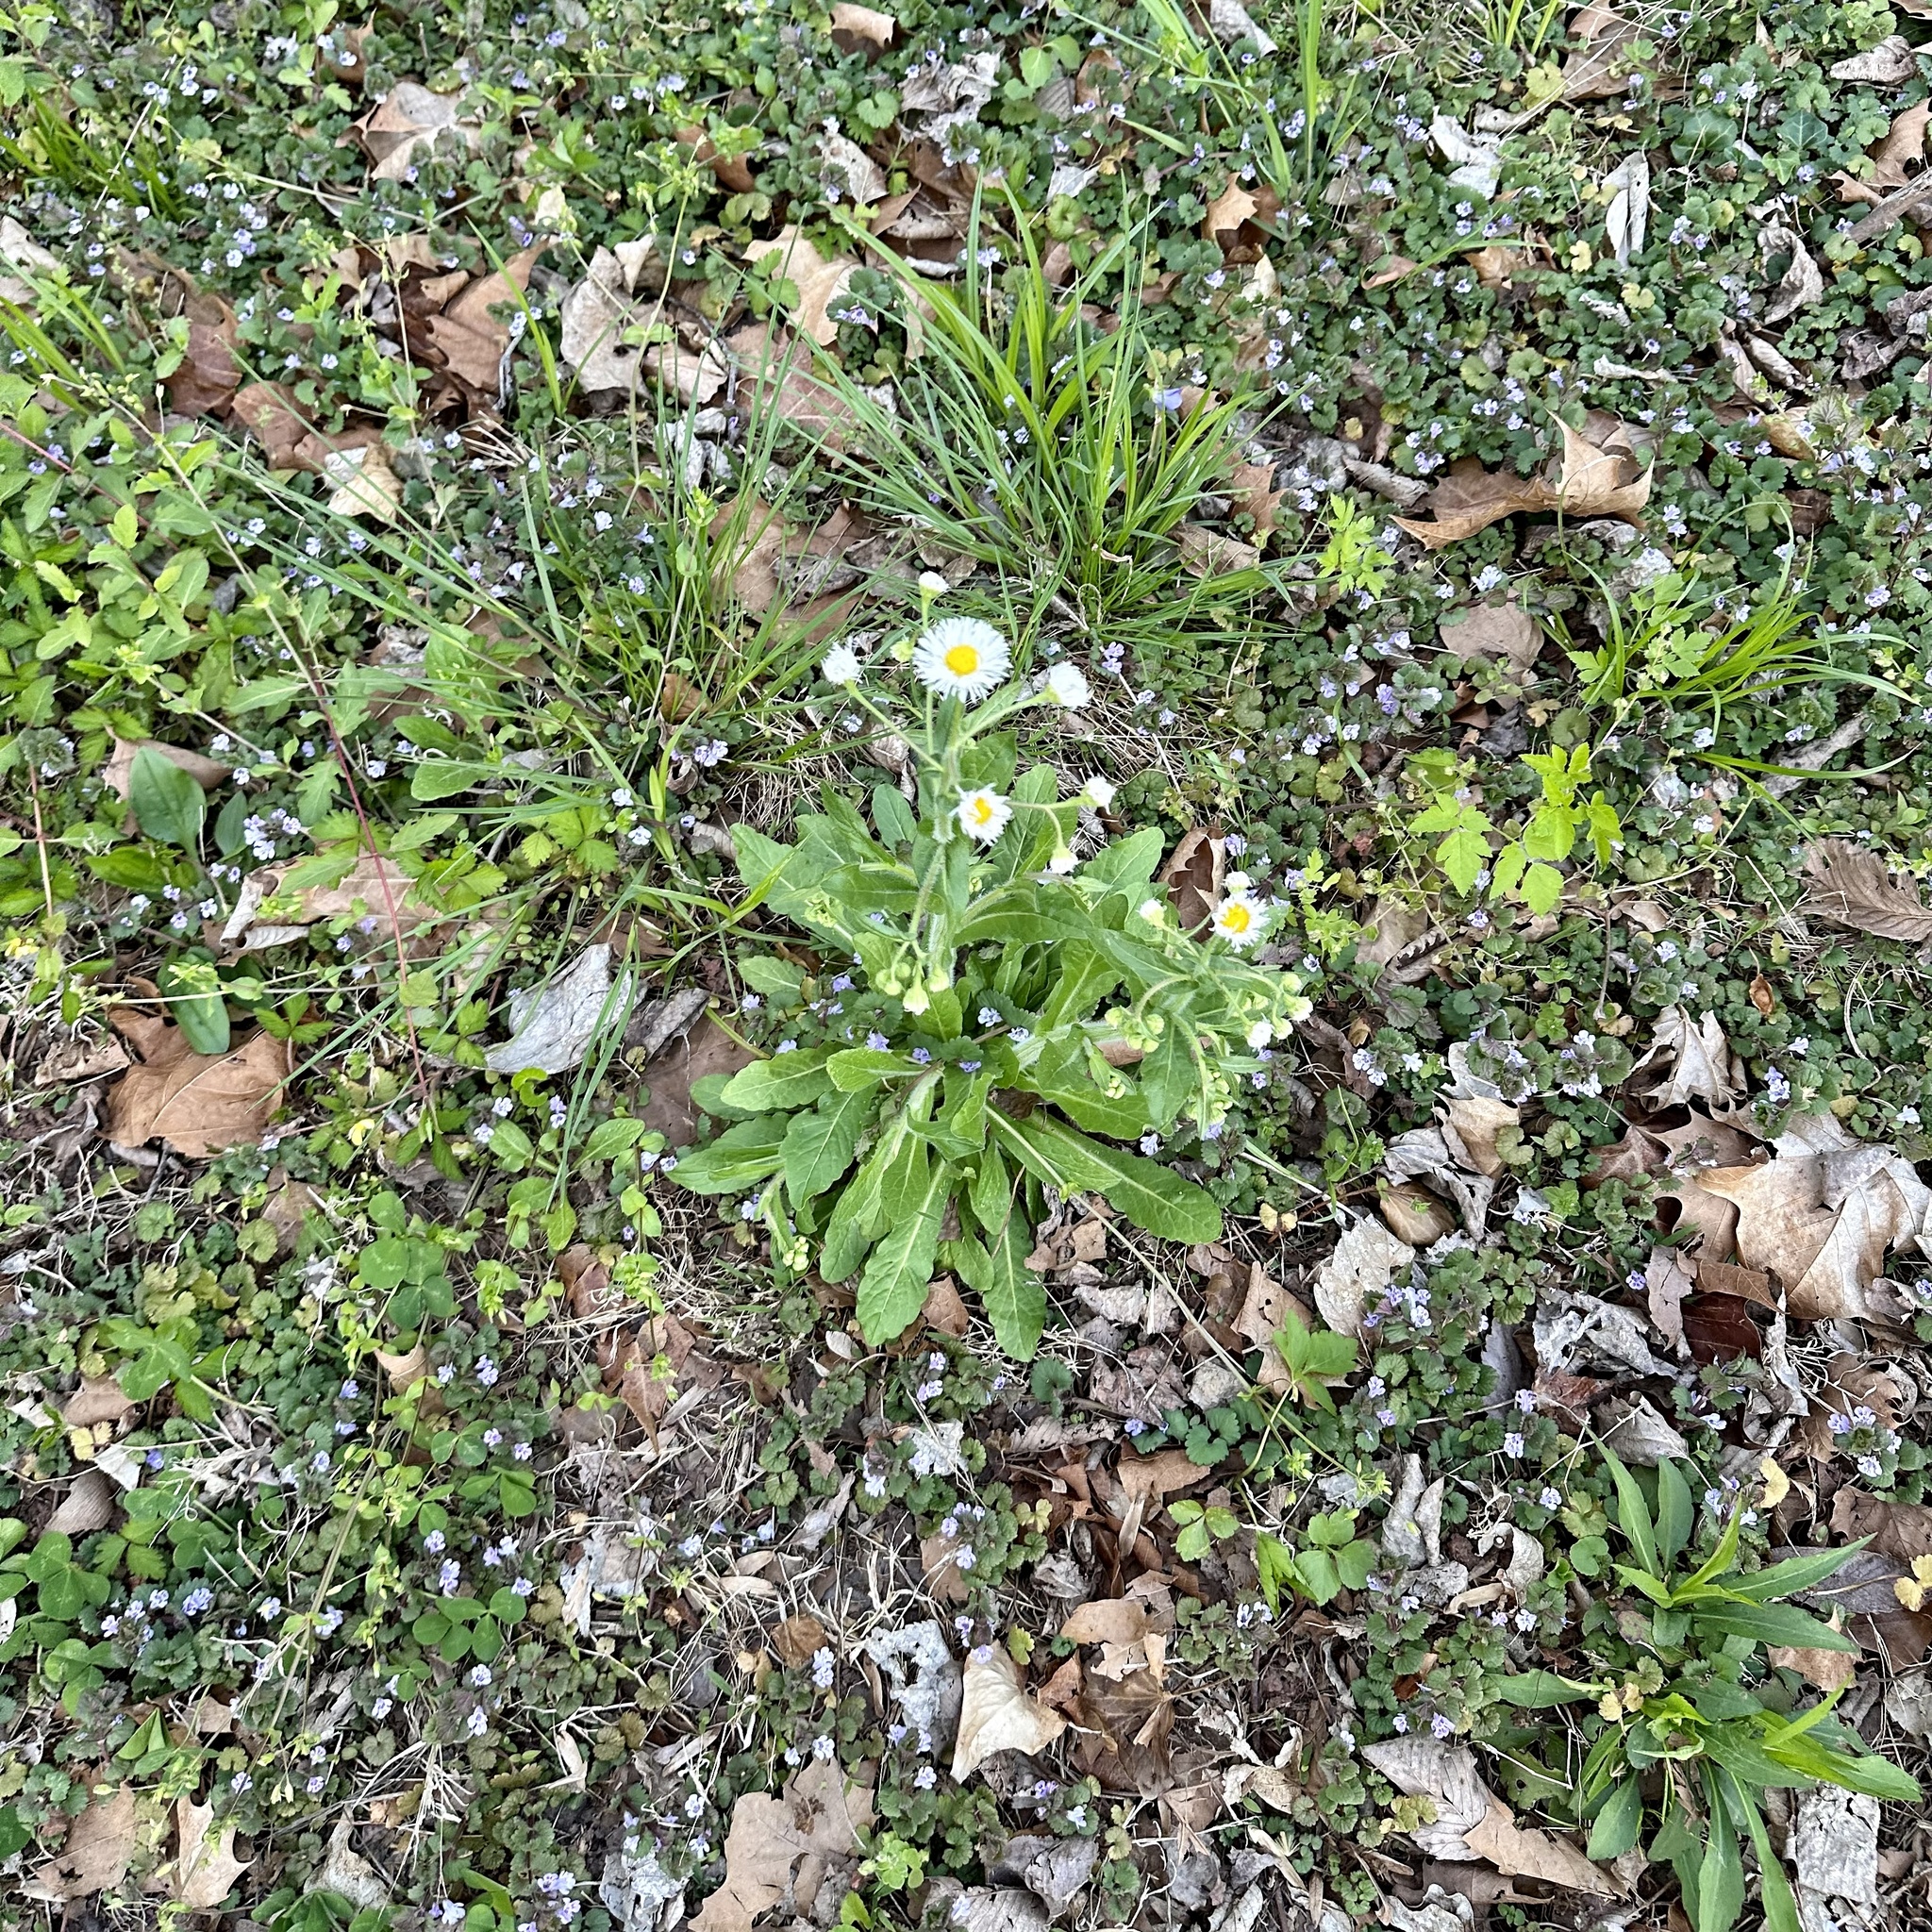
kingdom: Plantae
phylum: Tracheophyta
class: Magnoliopsida
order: Asterales
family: Asteraceae
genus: Erigeron
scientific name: Erigeron philadelphicus
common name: Robin's-plantain
